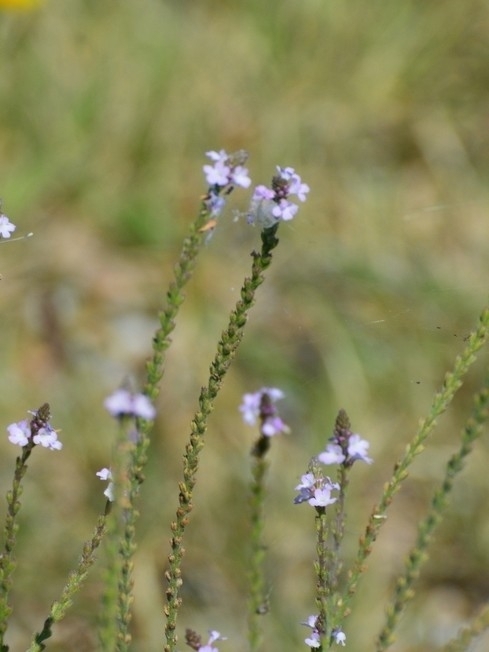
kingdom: Plantae
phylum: Tracheophyta
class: Magnoliopsida
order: Lamiales
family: Verbenaceae
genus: Verbena
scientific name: Verbena officinalis
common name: Vervain
